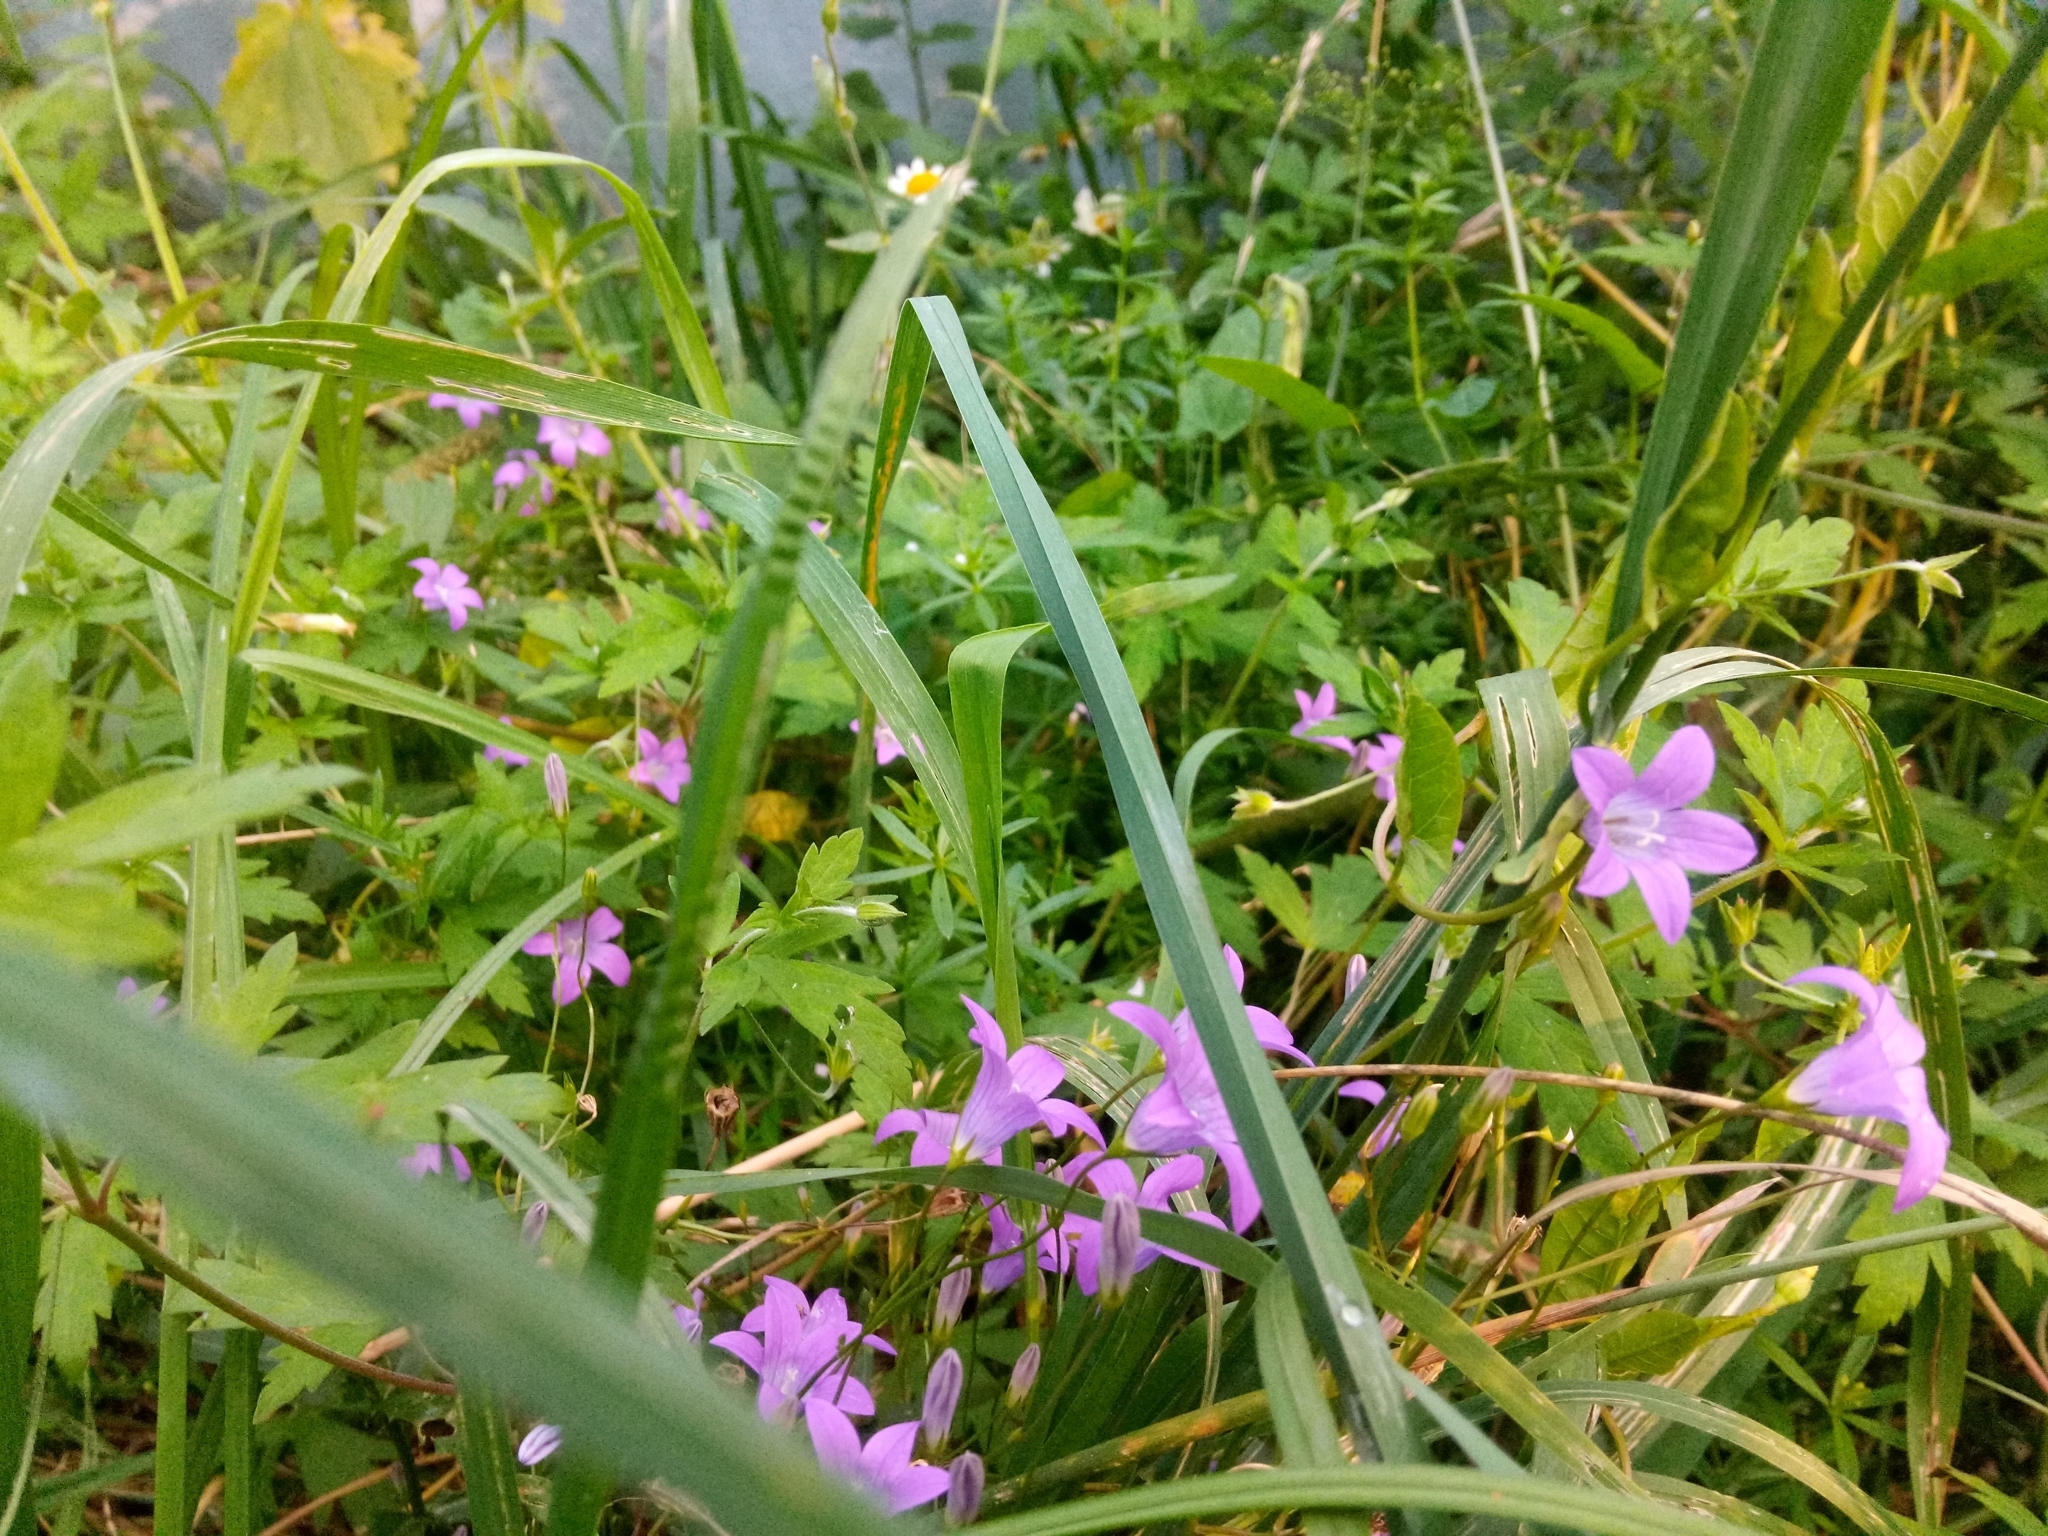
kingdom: Plantae
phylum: Tracheophyta
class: Magnoliopsida
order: Asterales
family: Campanulaceae
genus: Campanula
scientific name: Campanula patula
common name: Spreading bellflower
